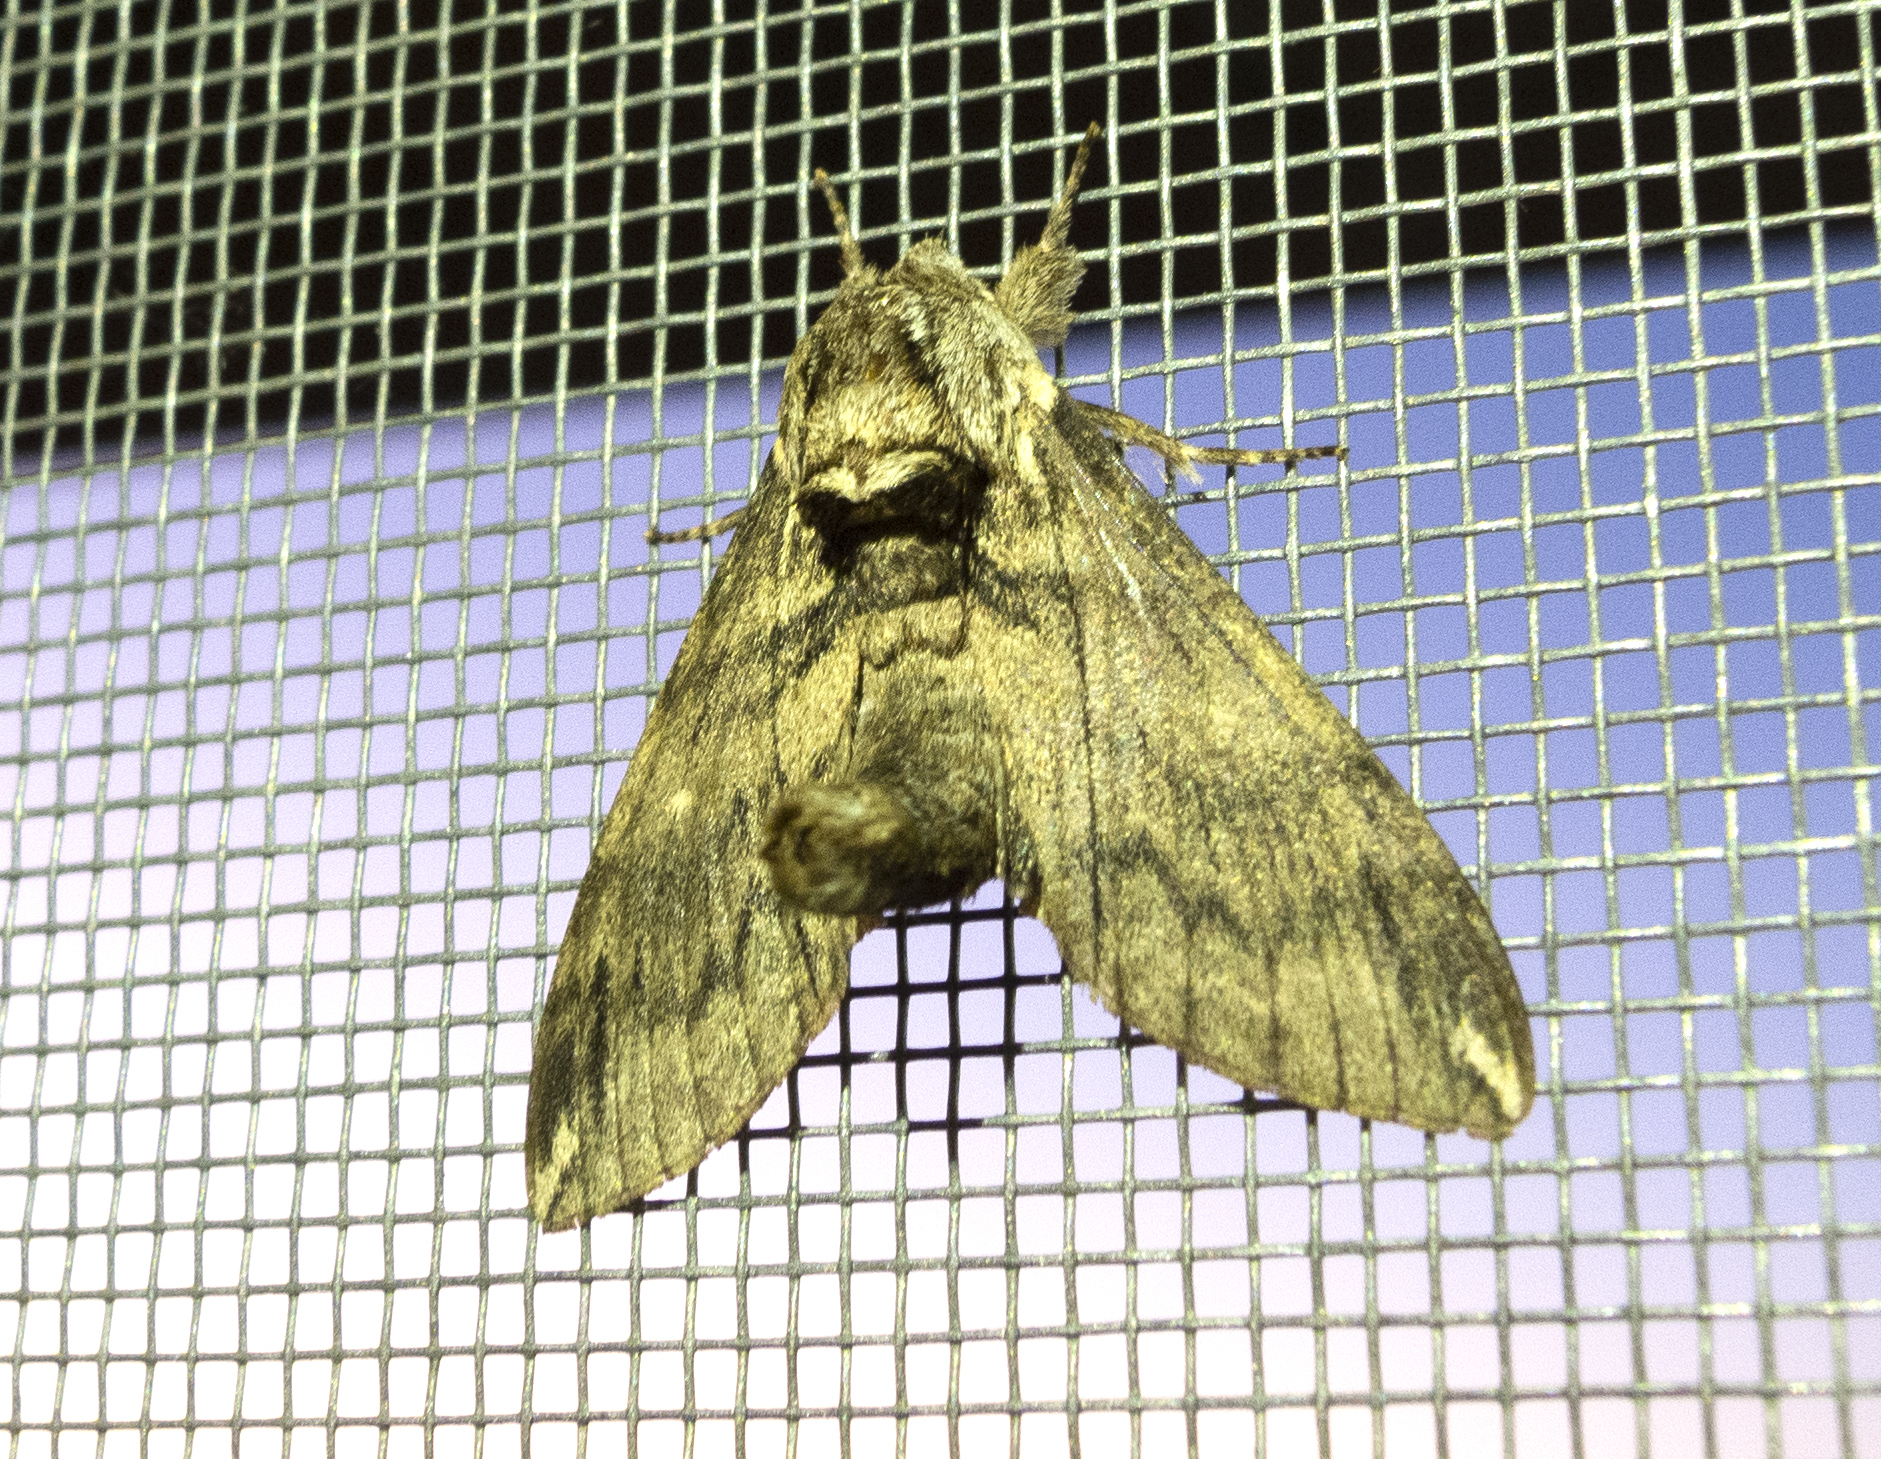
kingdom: Animalia
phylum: Arthropoda
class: Insecta
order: Lepidoptera
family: Sphingidae
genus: Dolbina
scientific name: Dolbina elegans
